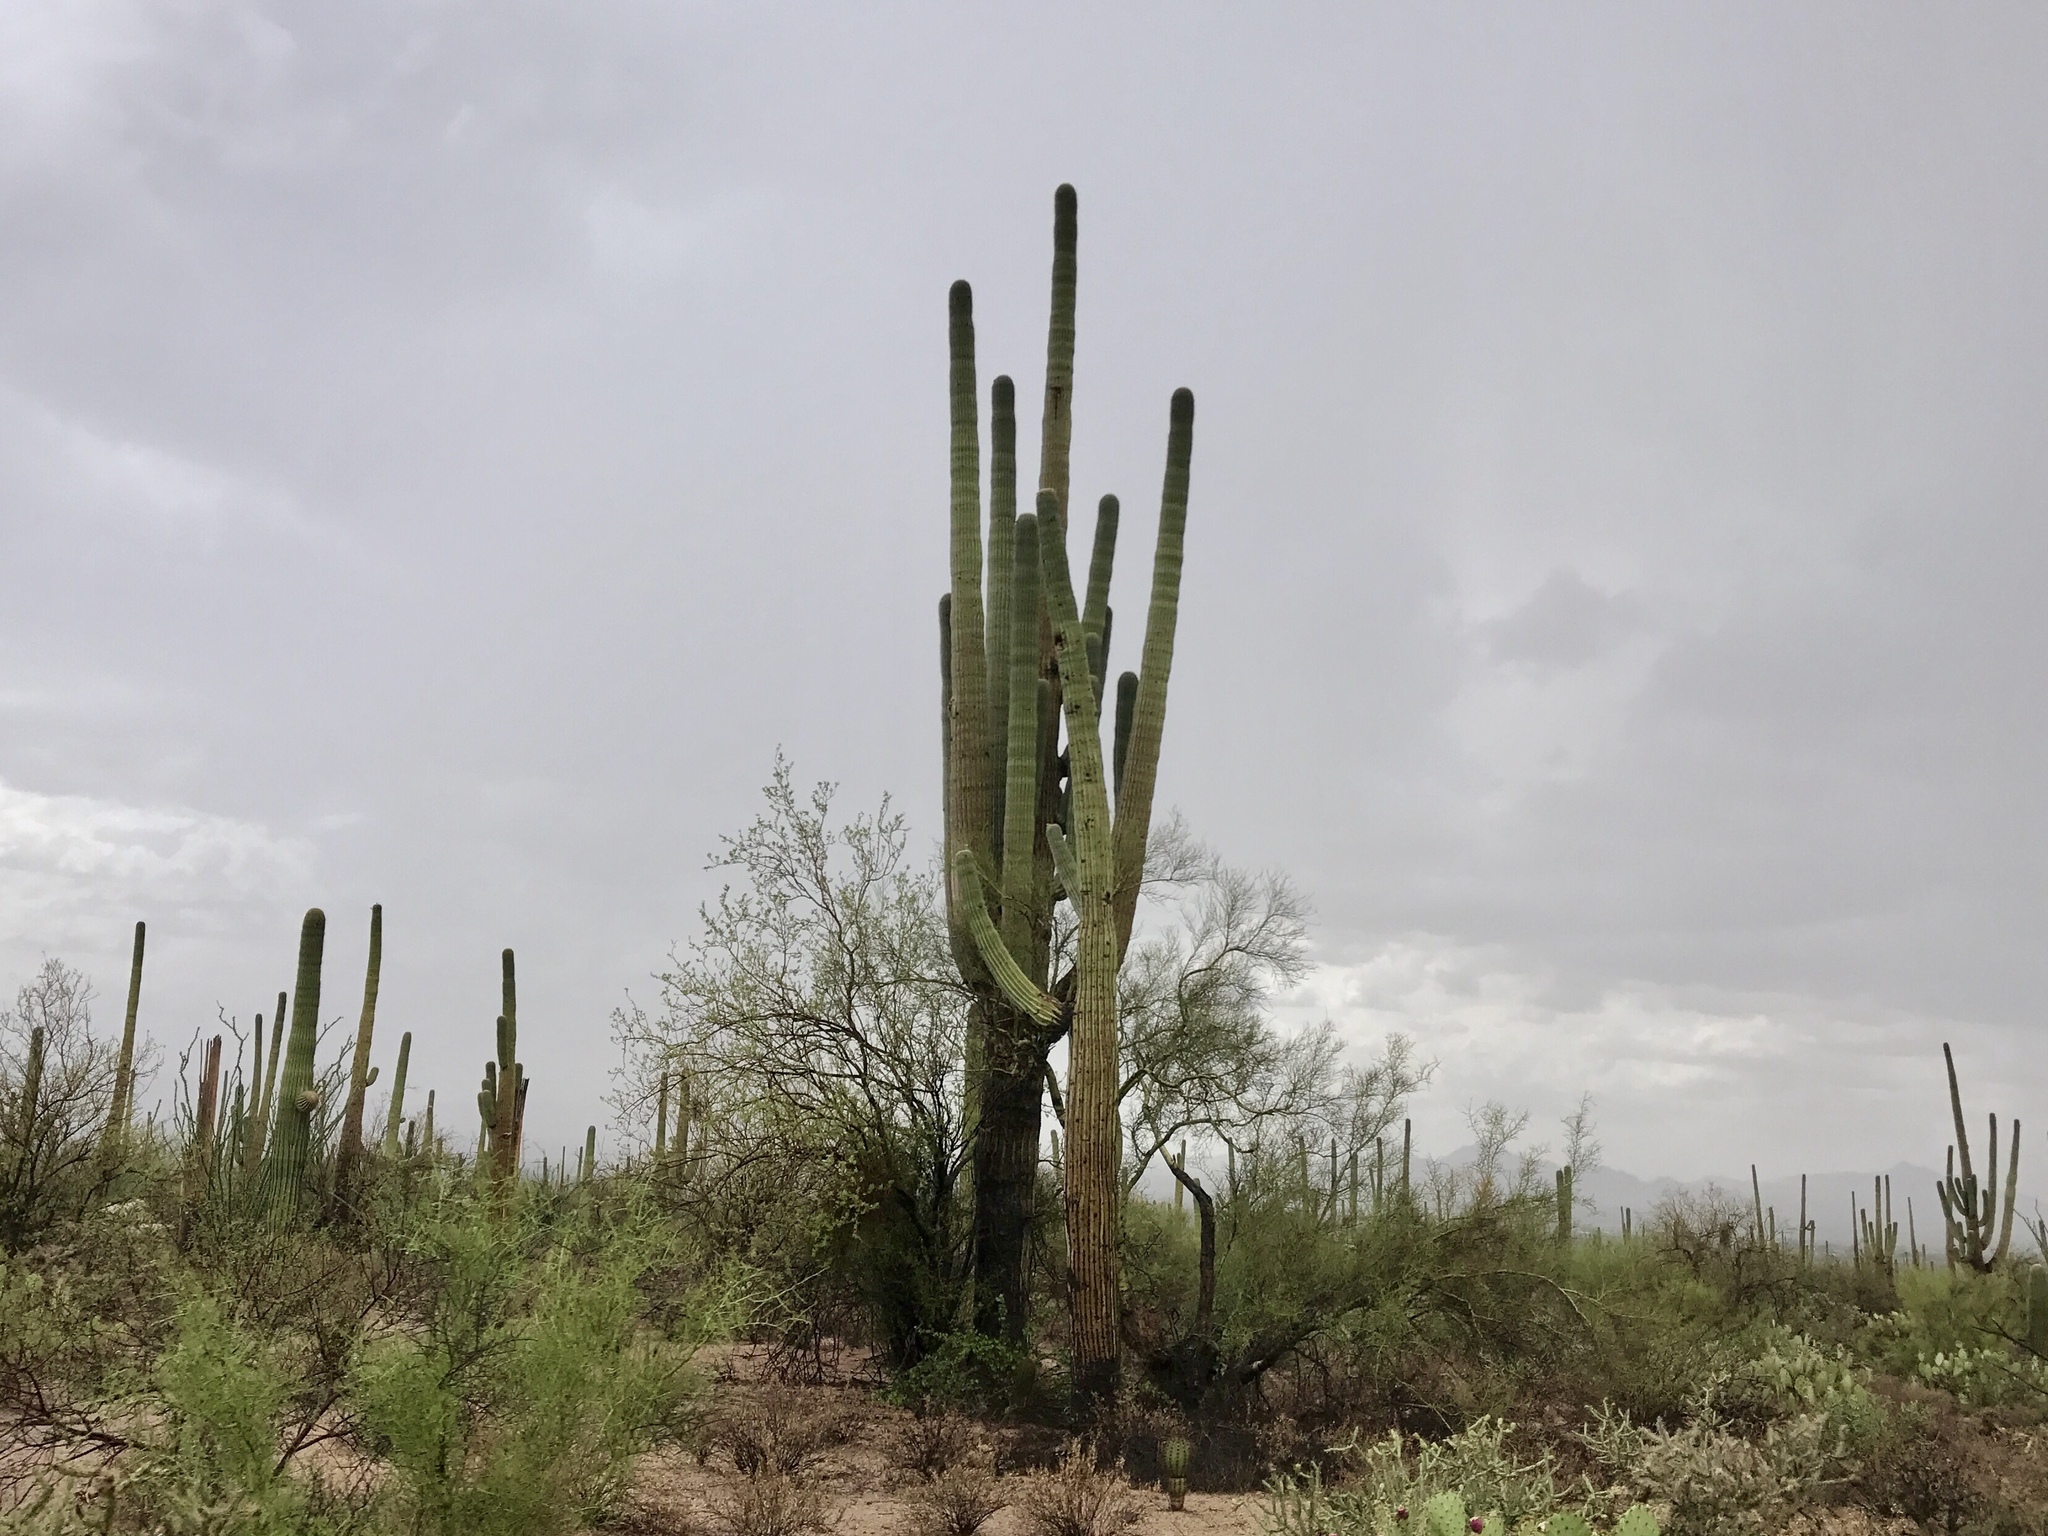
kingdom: Plantae
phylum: Tracheophyta
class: Magnoliopsida
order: Caryophyllales
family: Cactaceae
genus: Carnegiea
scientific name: Carnegiea gigantea
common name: Saguaro
